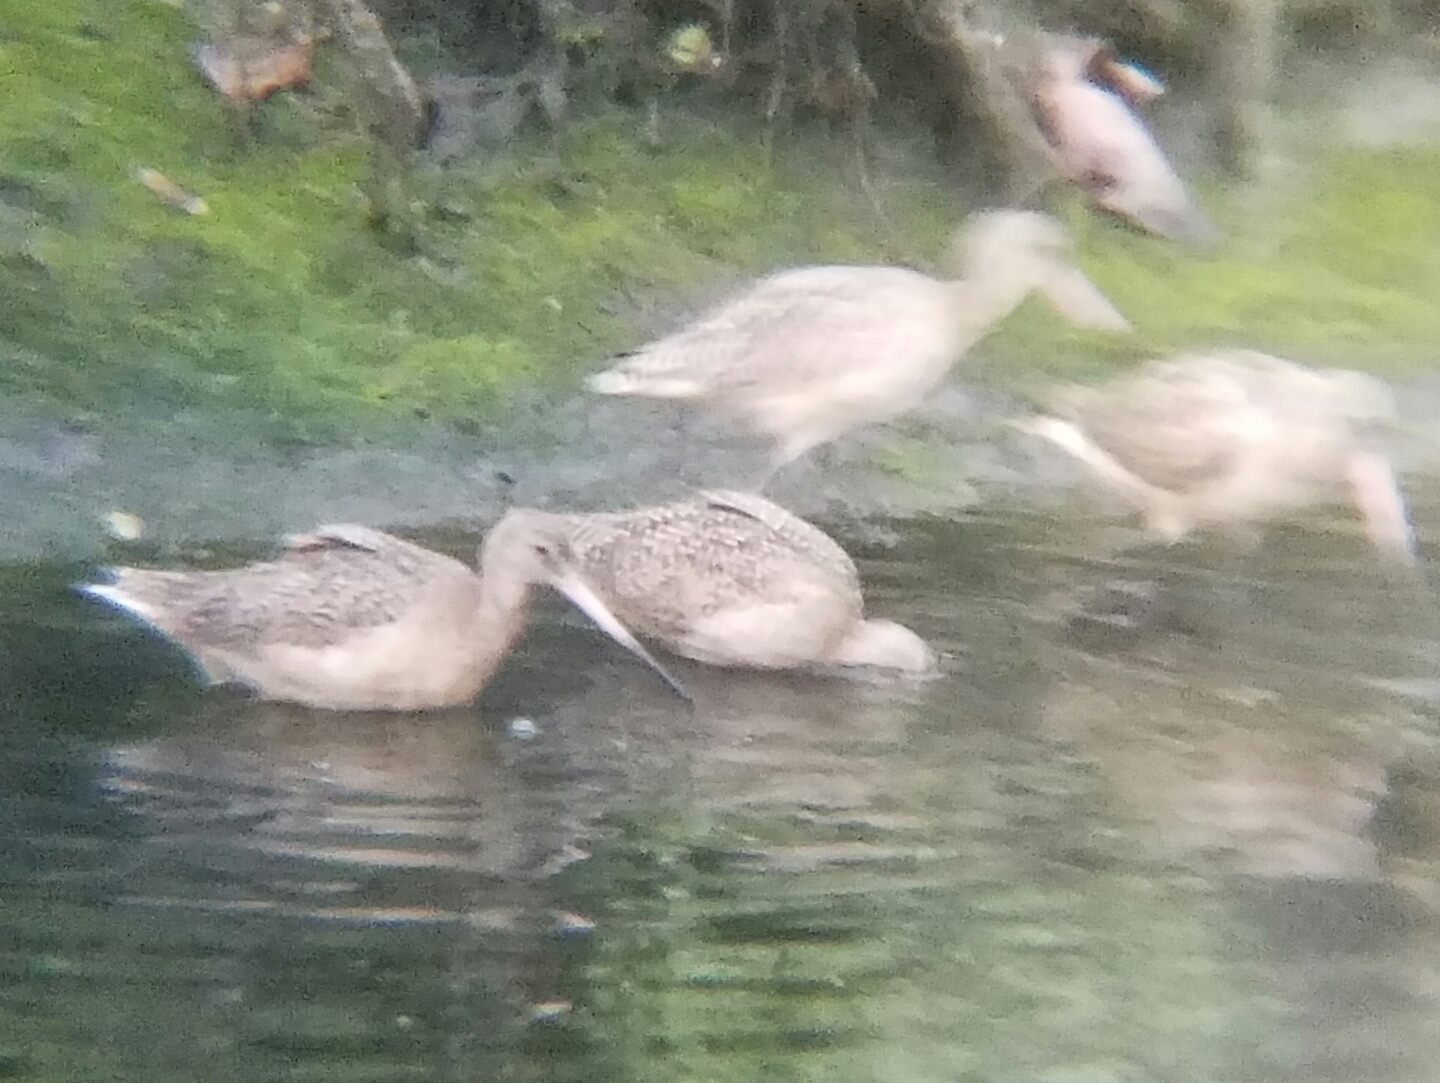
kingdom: Animalia
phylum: Chordata
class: Aves
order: Charadriiformes
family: Scolopacidae
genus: Limosa
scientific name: Limosa fedoa
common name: Marbled godwit
